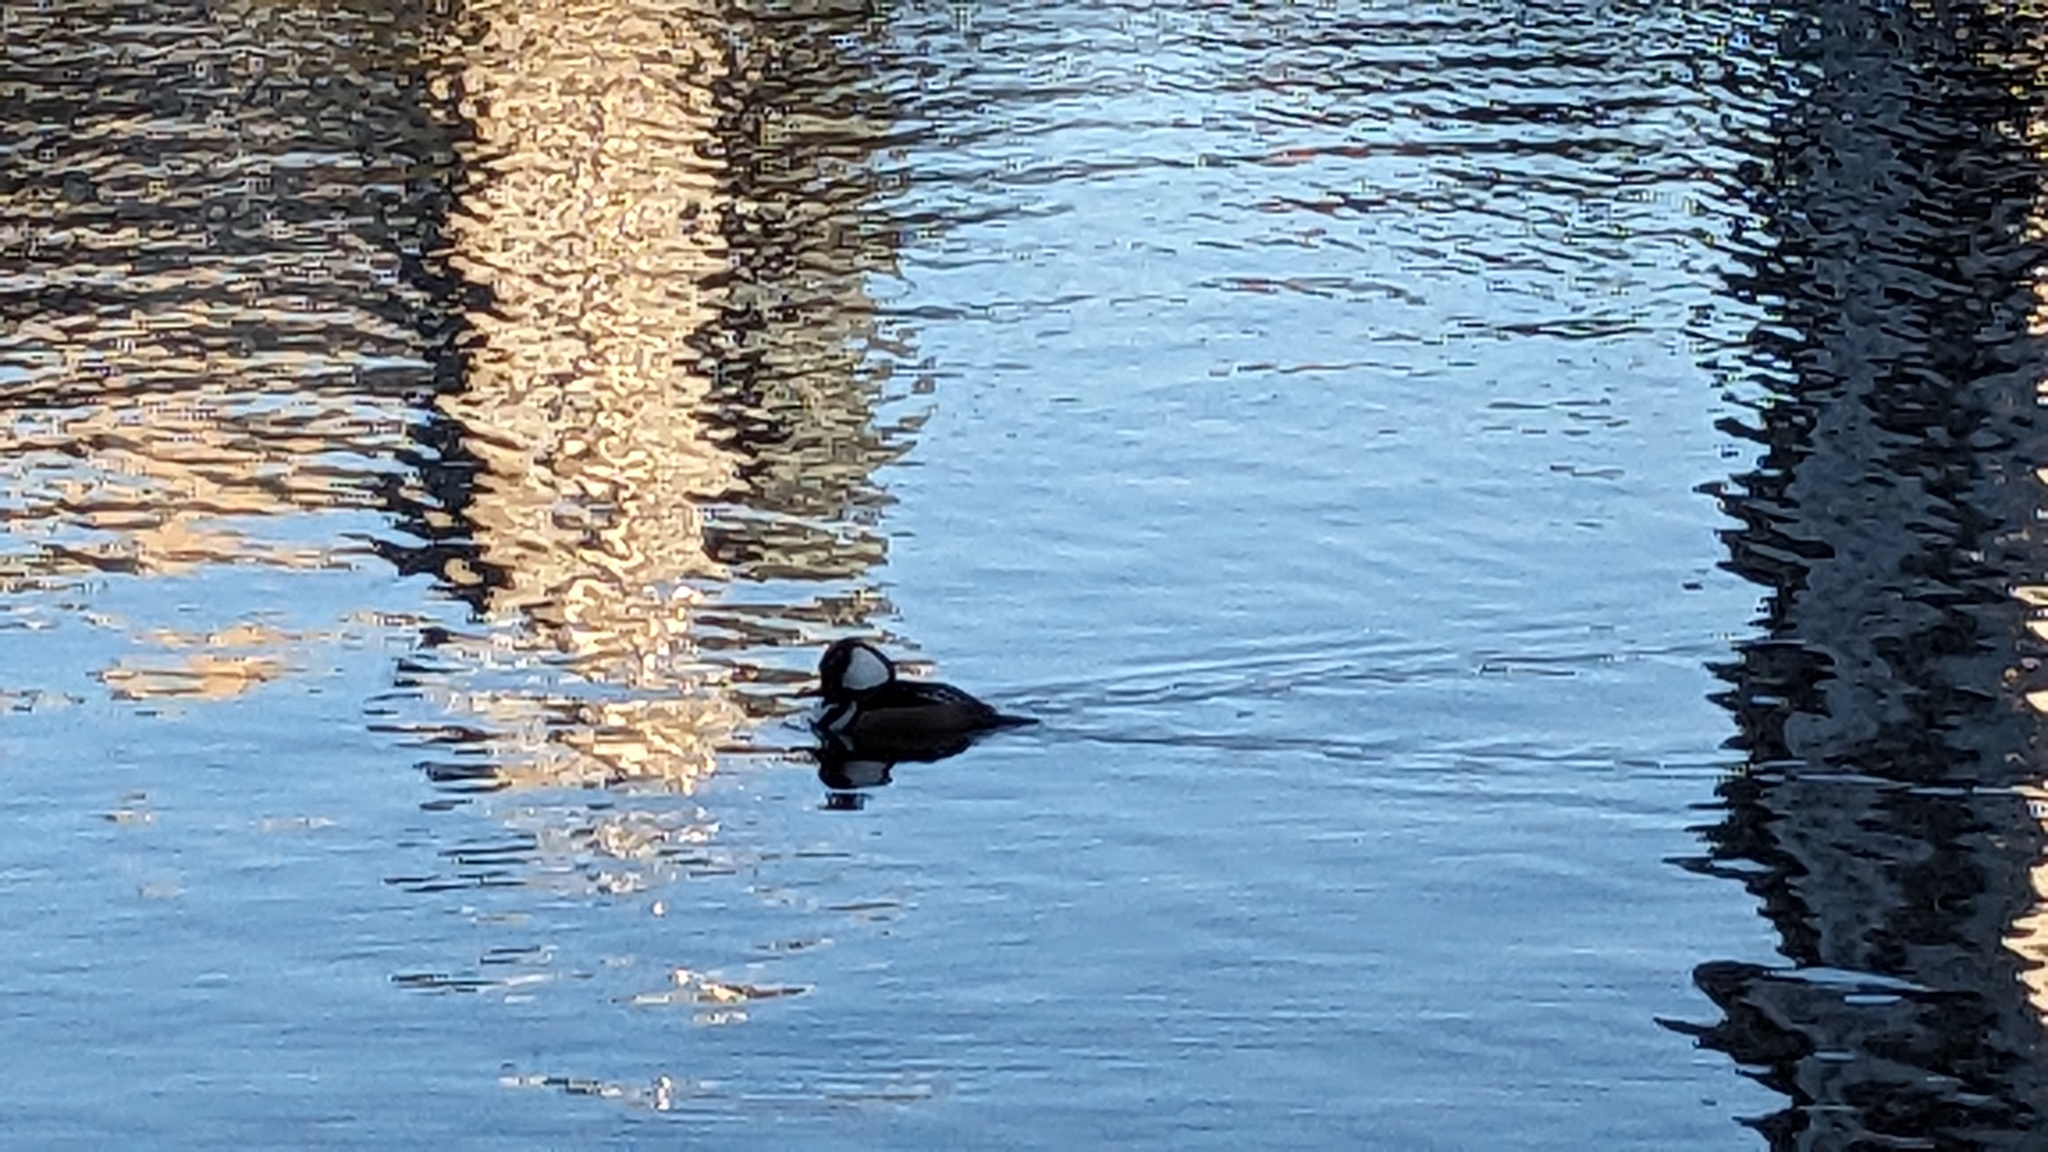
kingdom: Animalia
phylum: Chordata
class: Aves
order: Anseriformes
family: Anatidae
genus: Lophodytes
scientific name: Lophodytes cucullatus
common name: Hooded merganser
